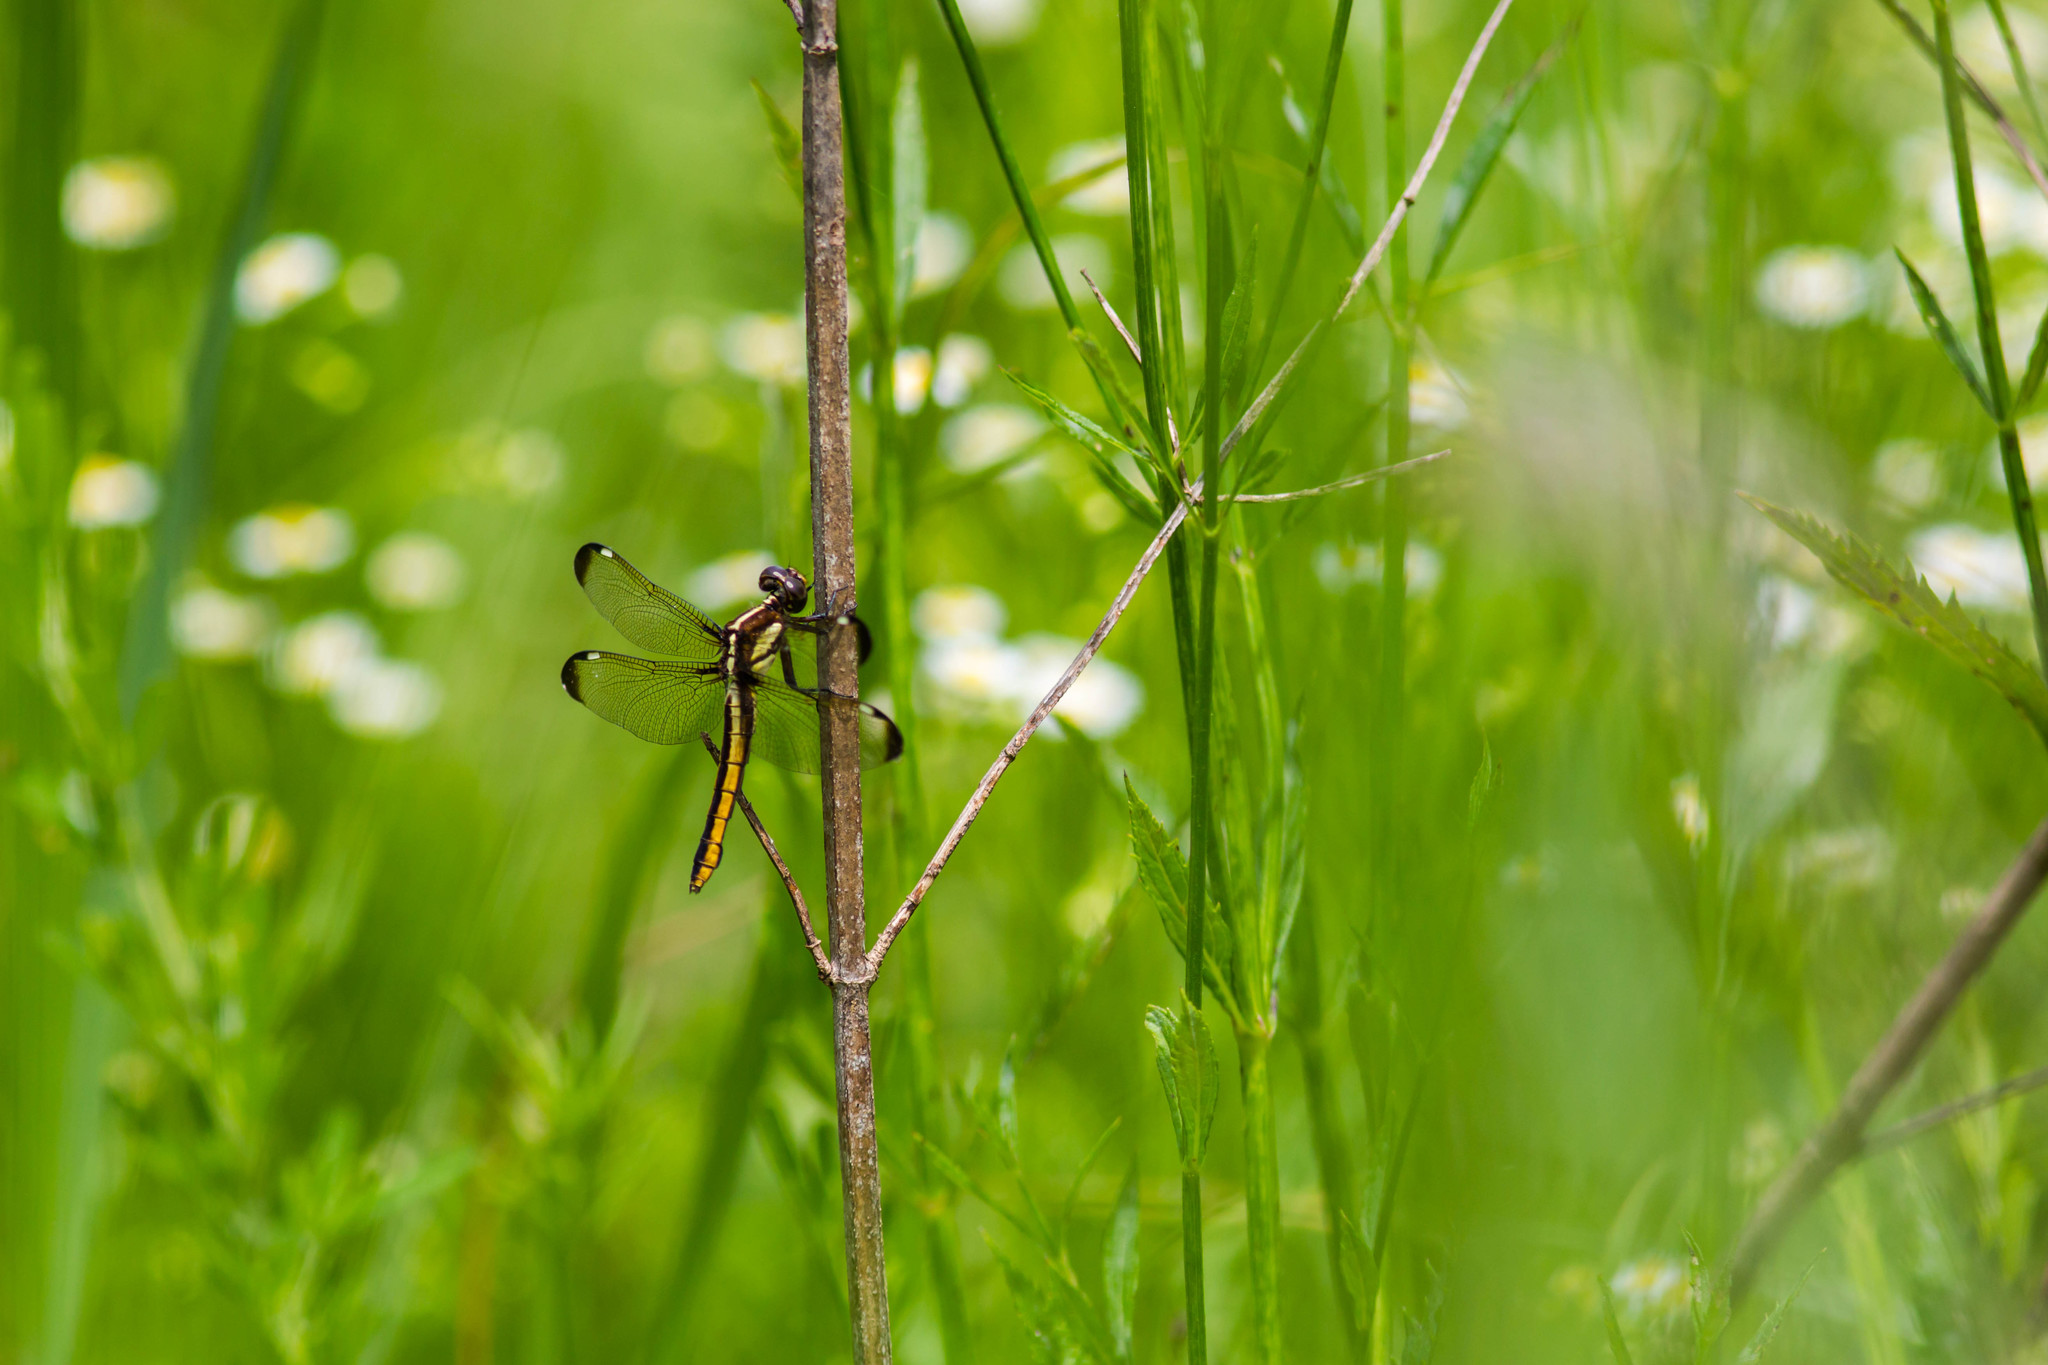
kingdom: Animalia
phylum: Arthropoda
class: Insecta
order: Odonata
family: Libellulidae
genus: Libellula
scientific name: Libellula cyanea
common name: Spangled skimmer
